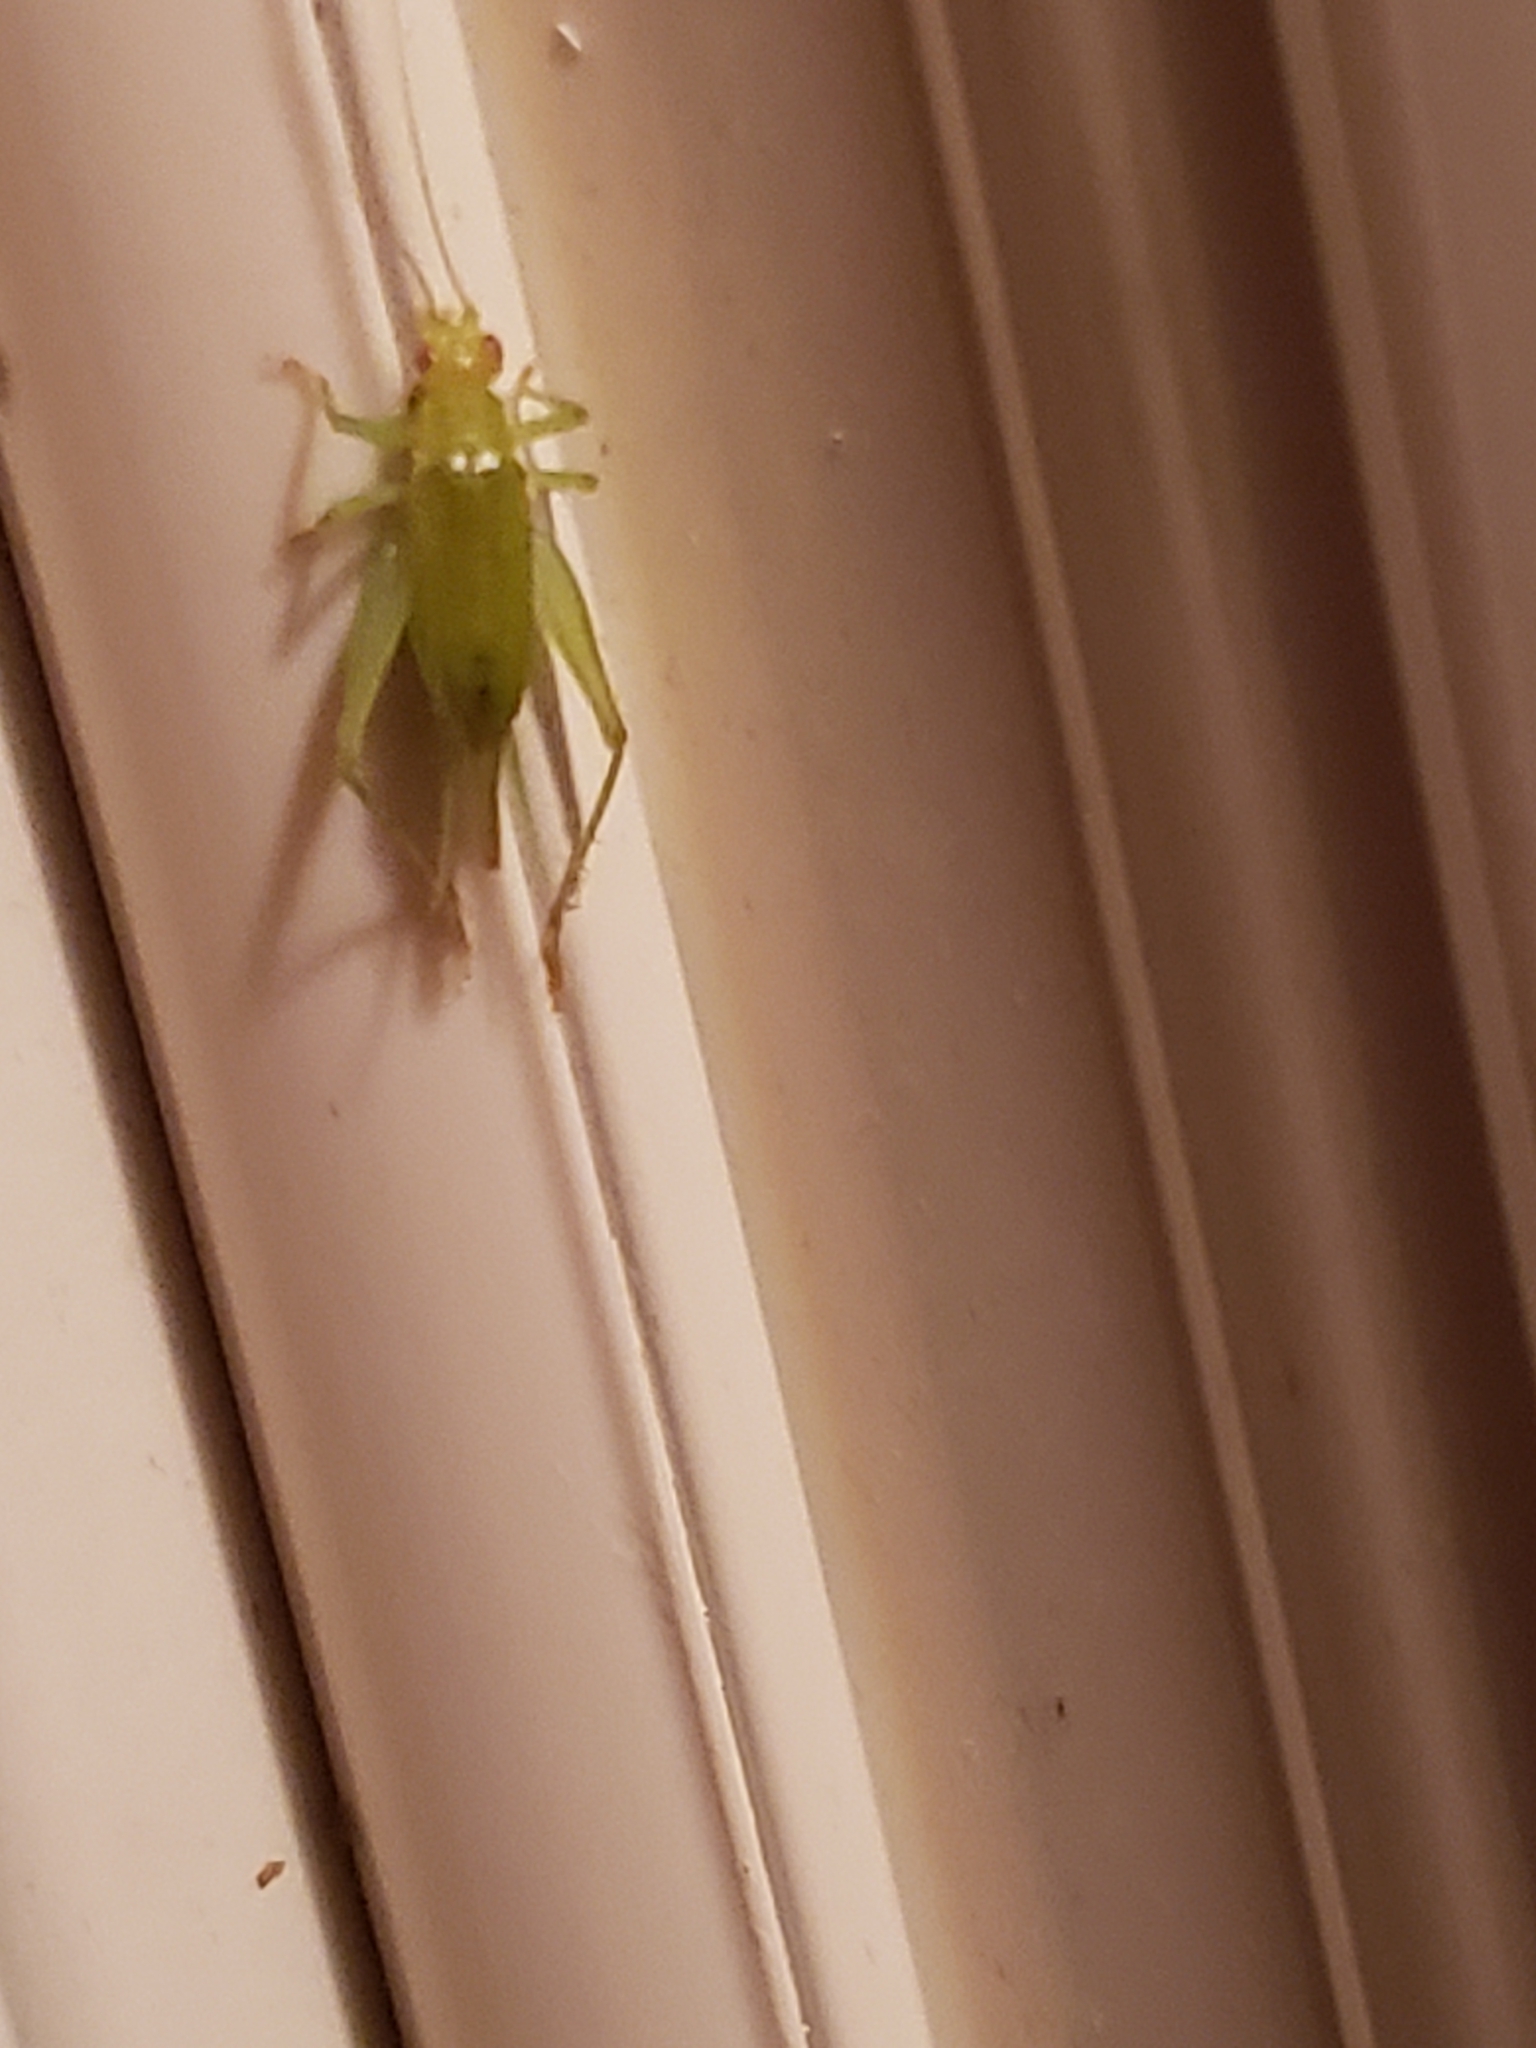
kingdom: Animalia
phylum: Arthropoda
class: Insecta
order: Orthoptera
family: Trigonidiidae
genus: Cyrtoxipha
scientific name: Cyrtoxipha columbiana
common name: Columbian trig
